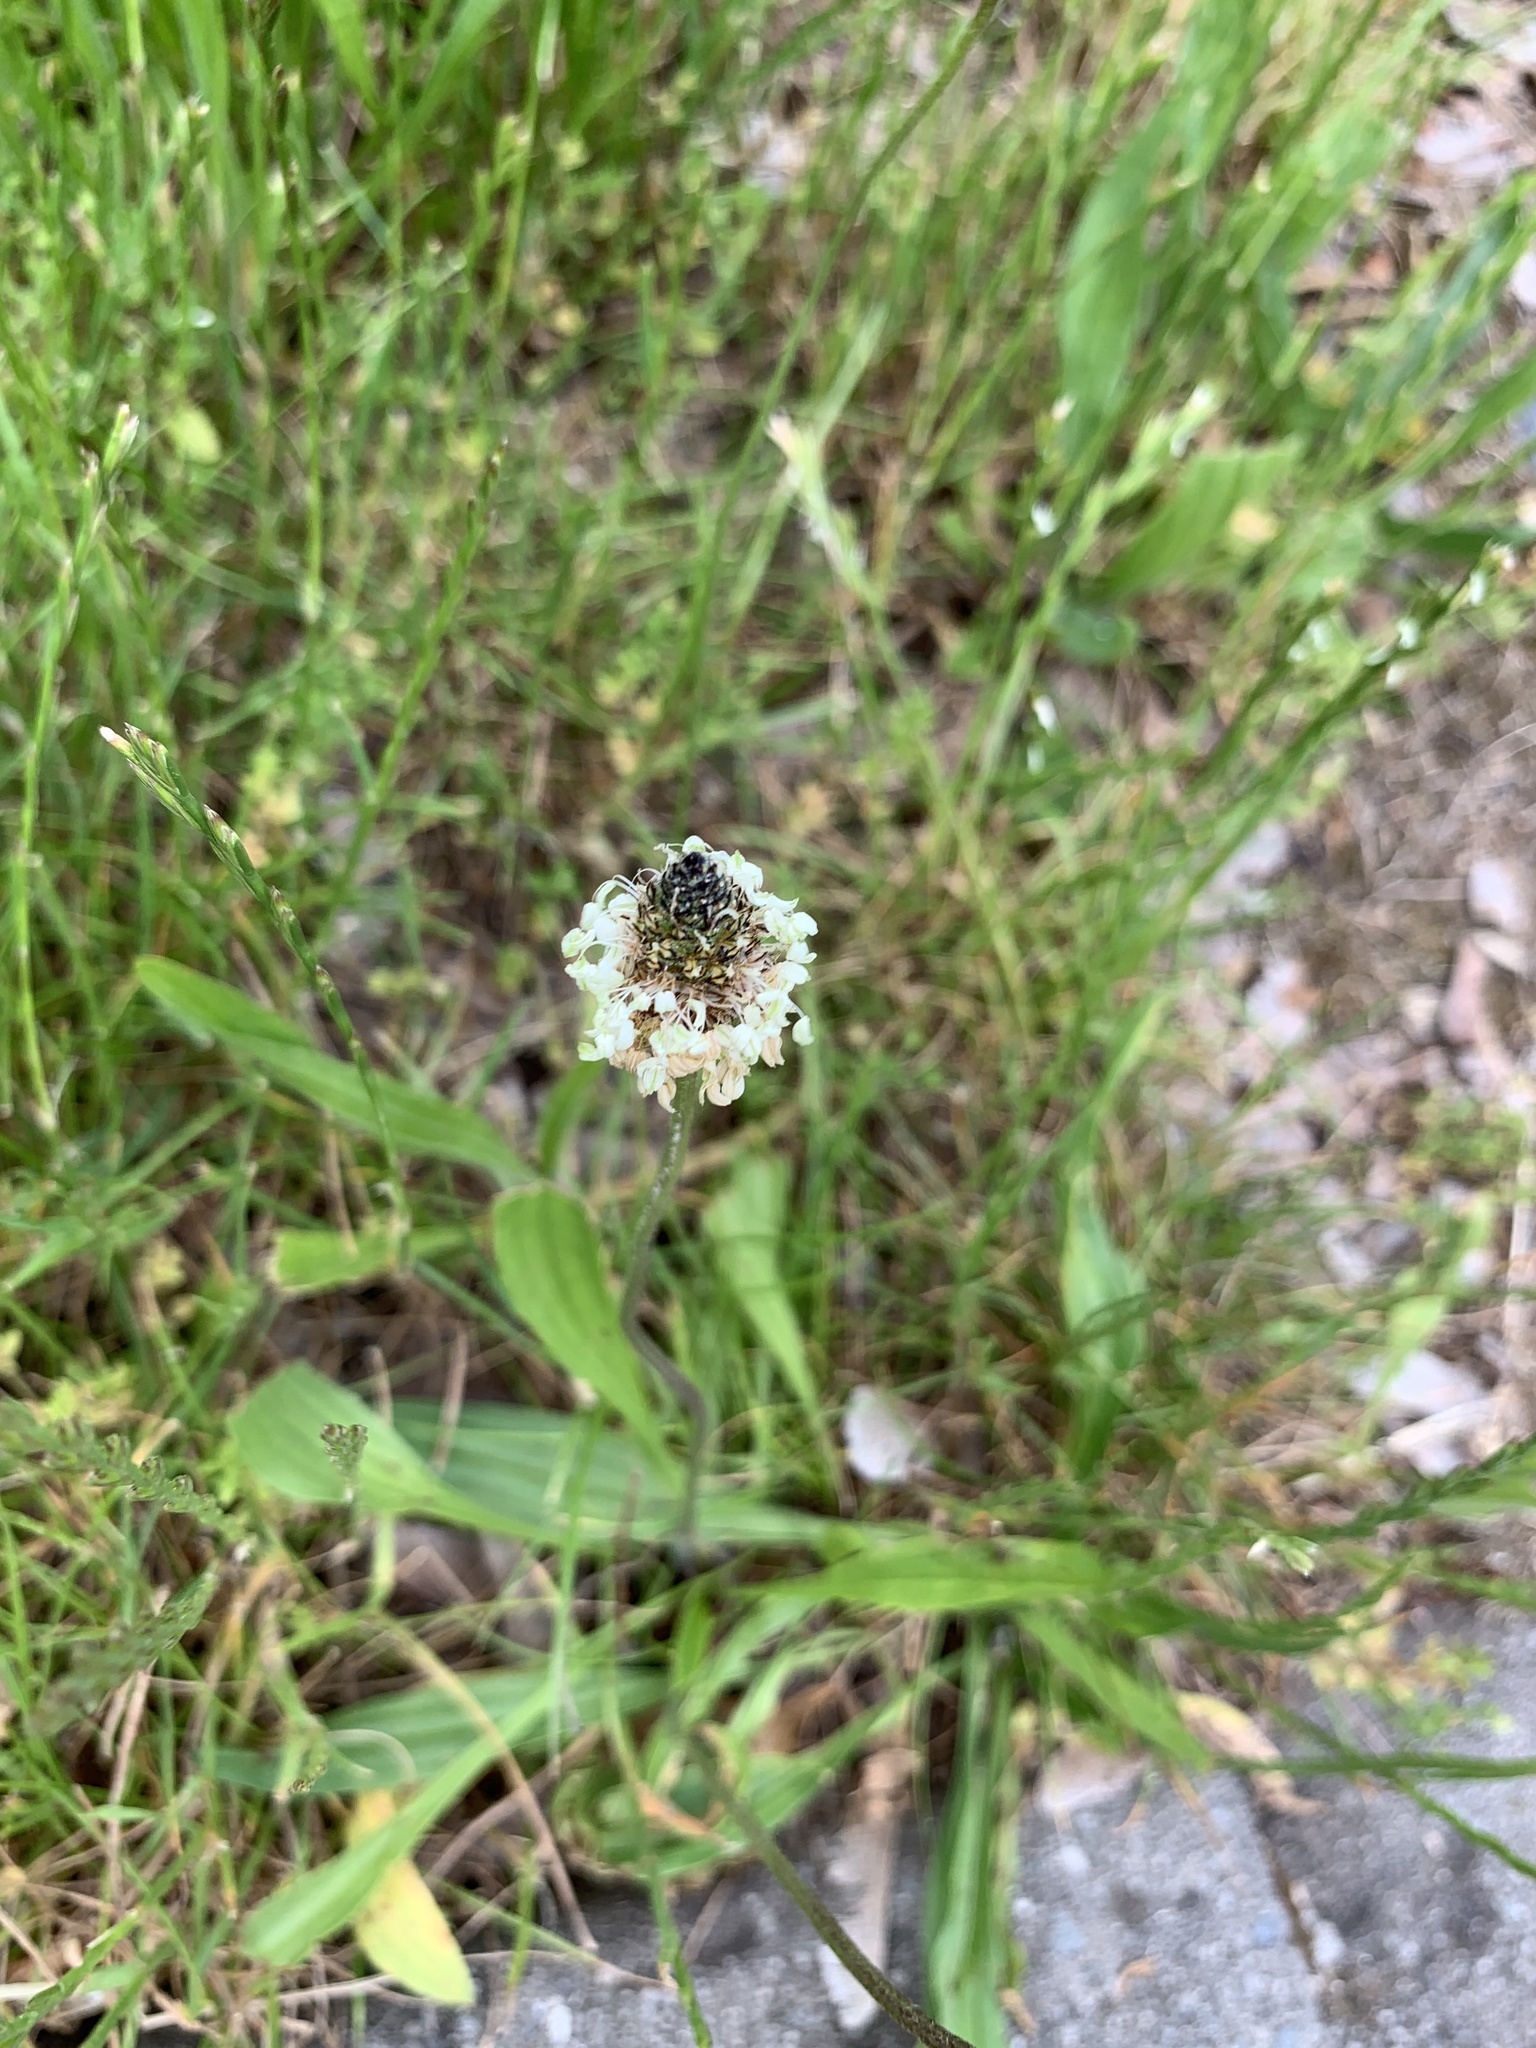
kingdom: Plantae
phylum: Tracheophyta
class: Magnoliopsida
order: Lamiales
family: Plantaginaceae
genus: Plantago
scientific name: Plantago lanceolata
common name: Ribwort plantain
